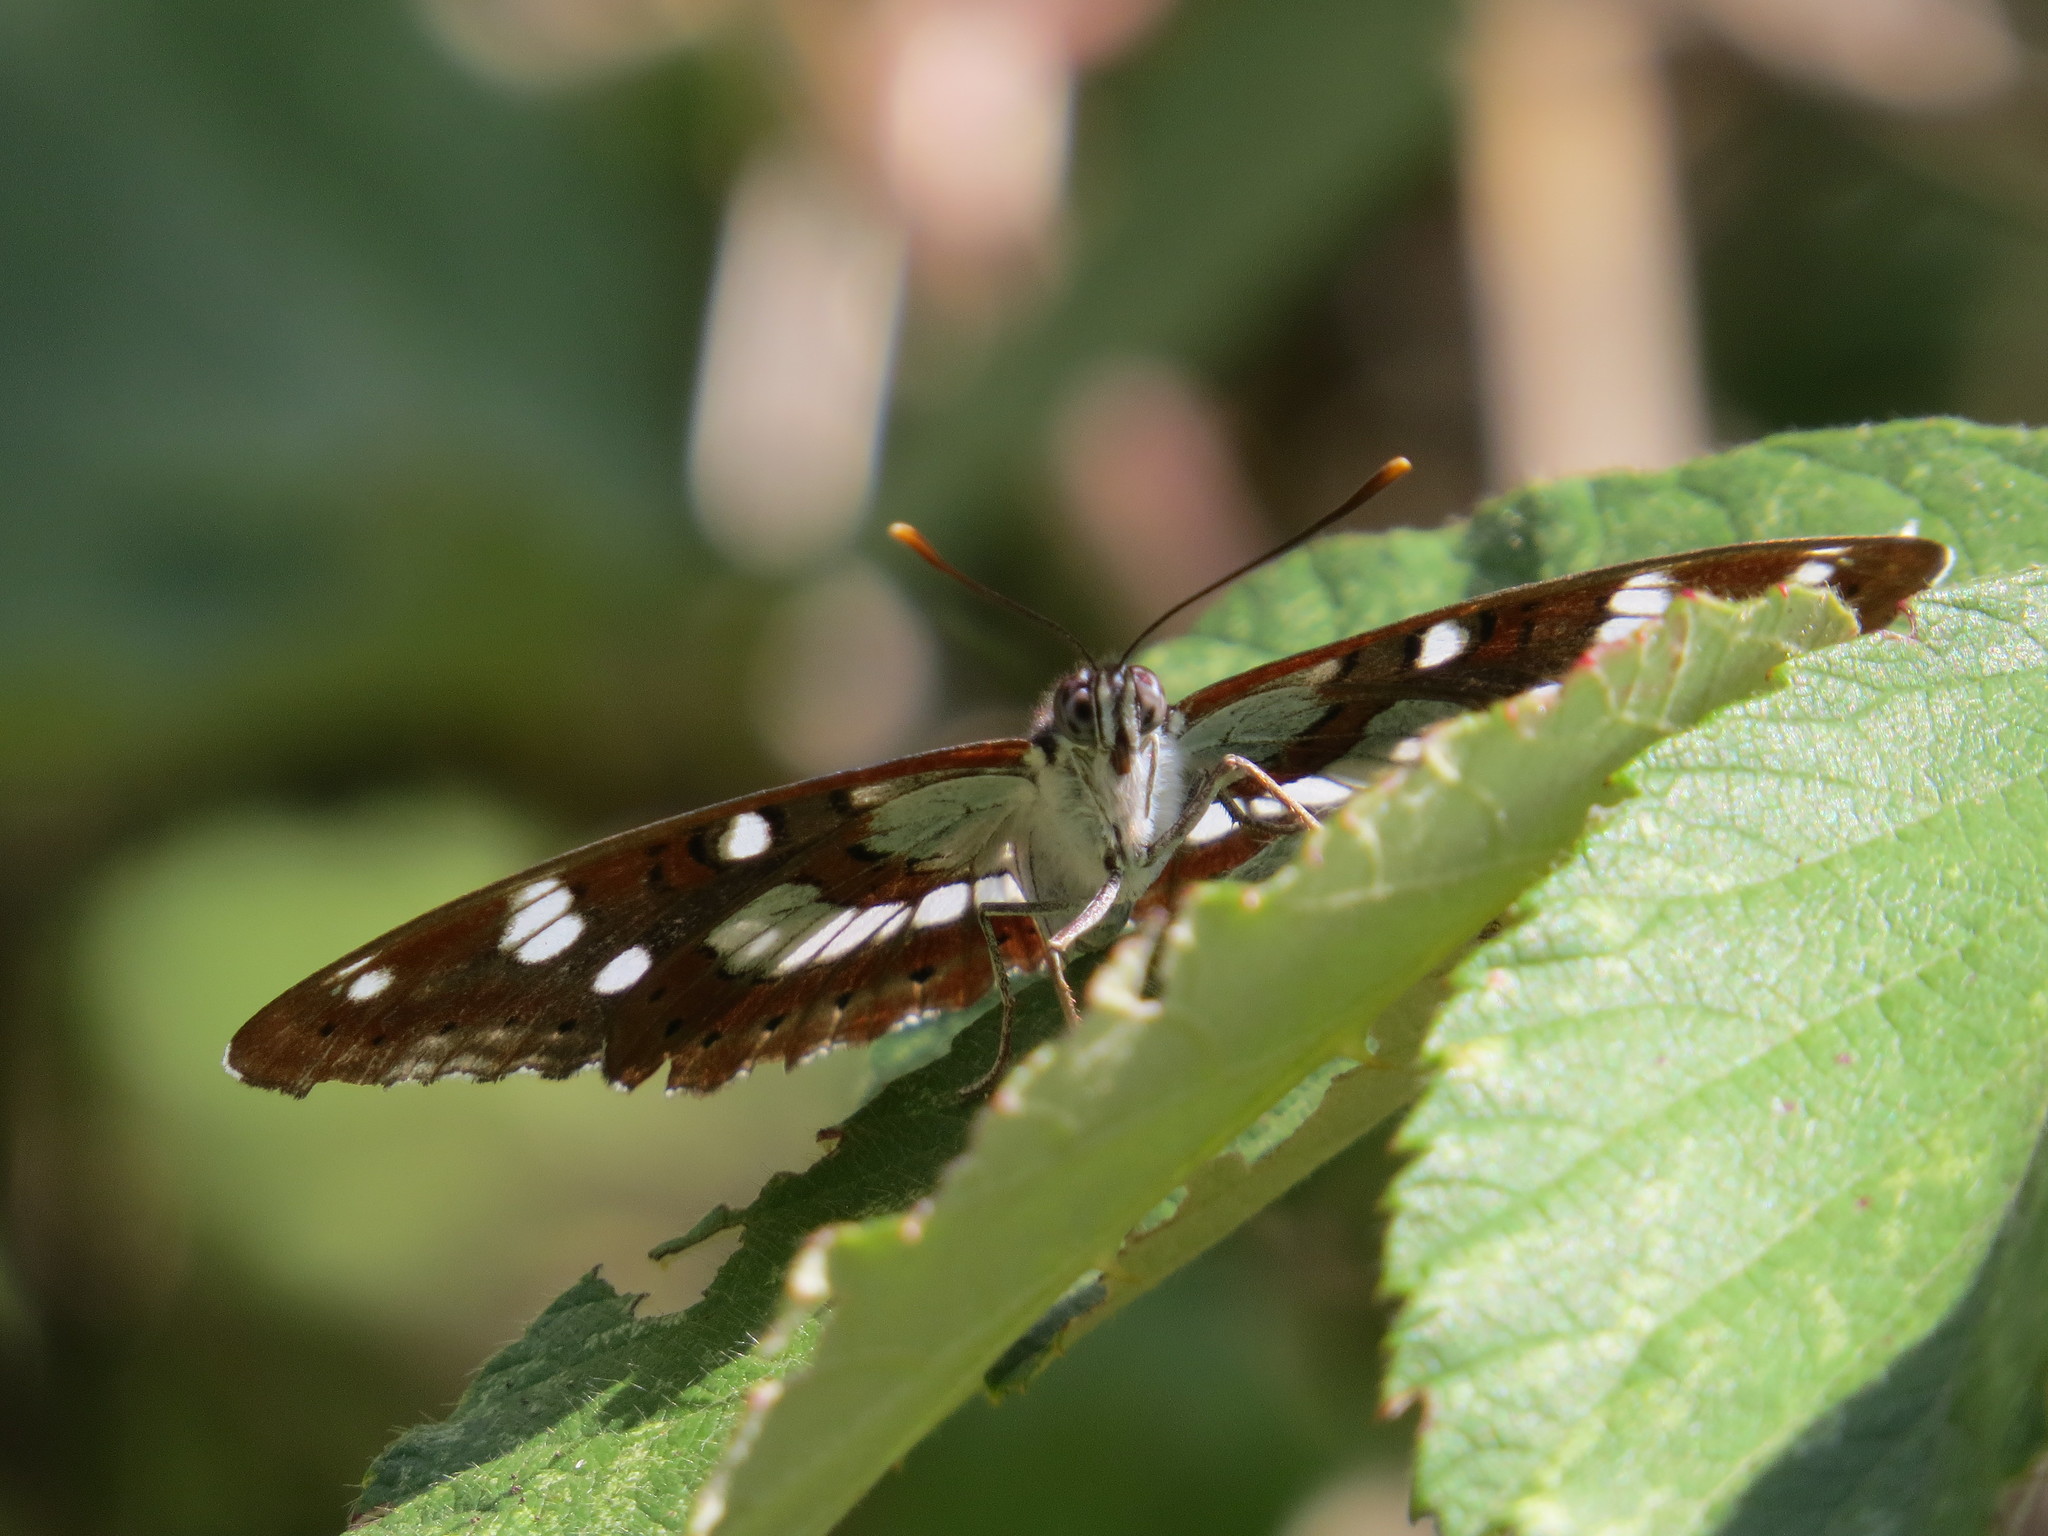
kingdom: Animalia
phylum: Arthropoda
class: Insecta
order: Lepidoptera
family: Nymphalidae
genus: Limenitis
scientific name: Limenitis reducta
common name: Southern white admiral
